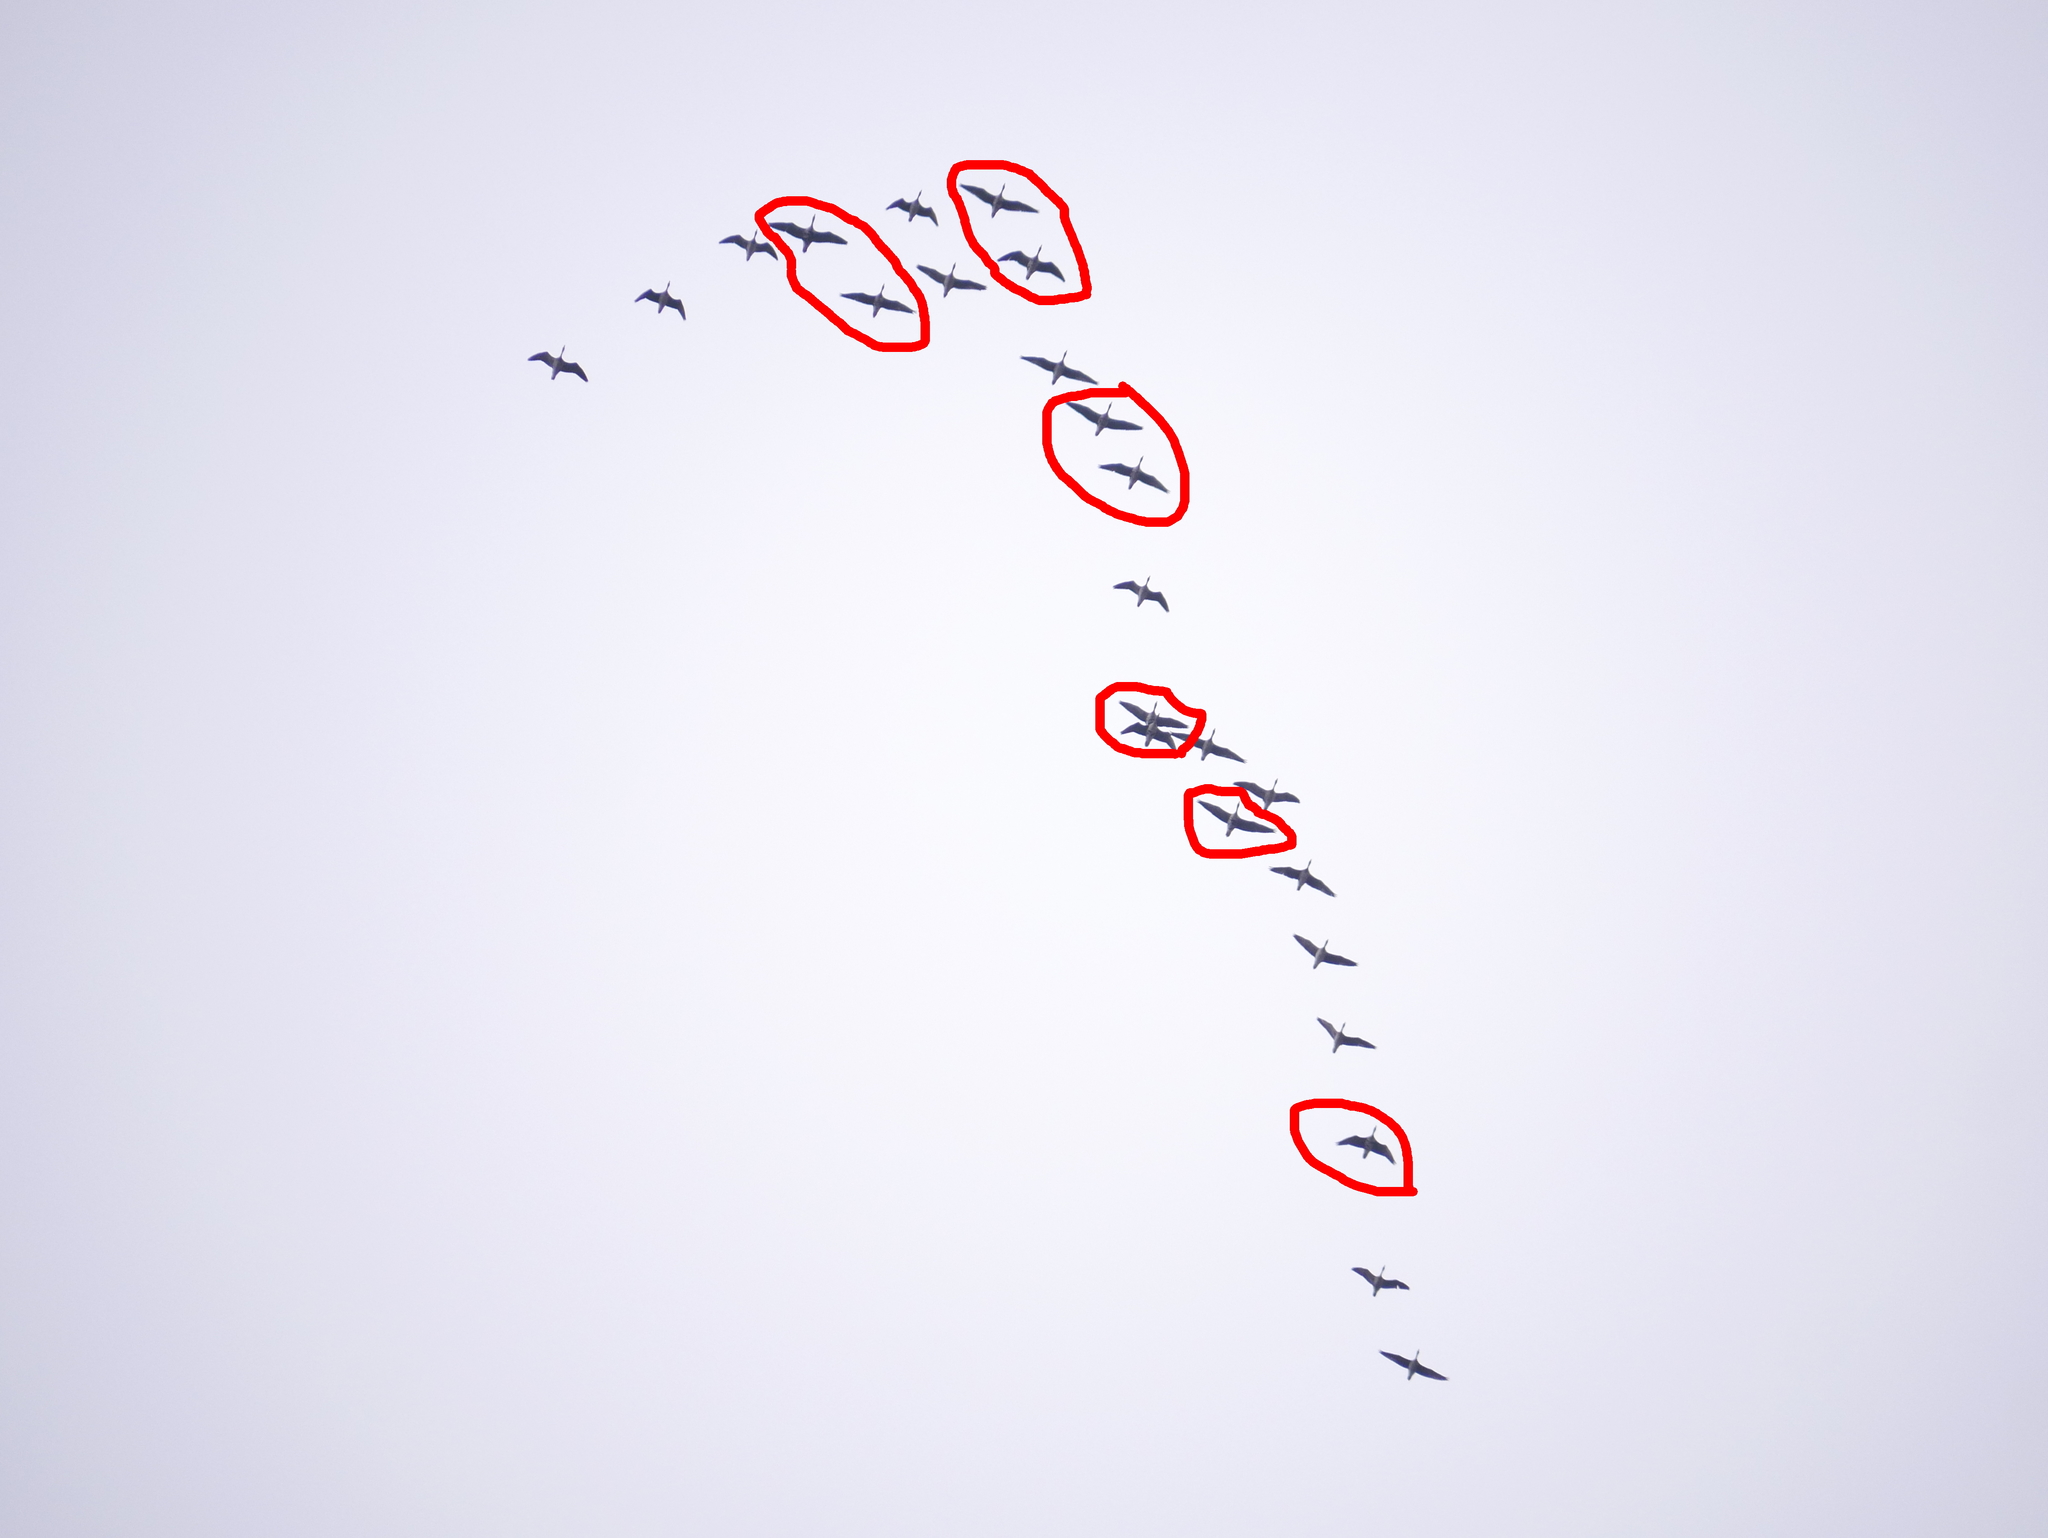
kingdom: Animalia
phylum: Chordata
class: Aves
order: Anseriformes
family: Anatidae
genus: Anser
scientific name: Anser albifrons
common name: Greater white-fronted goose
